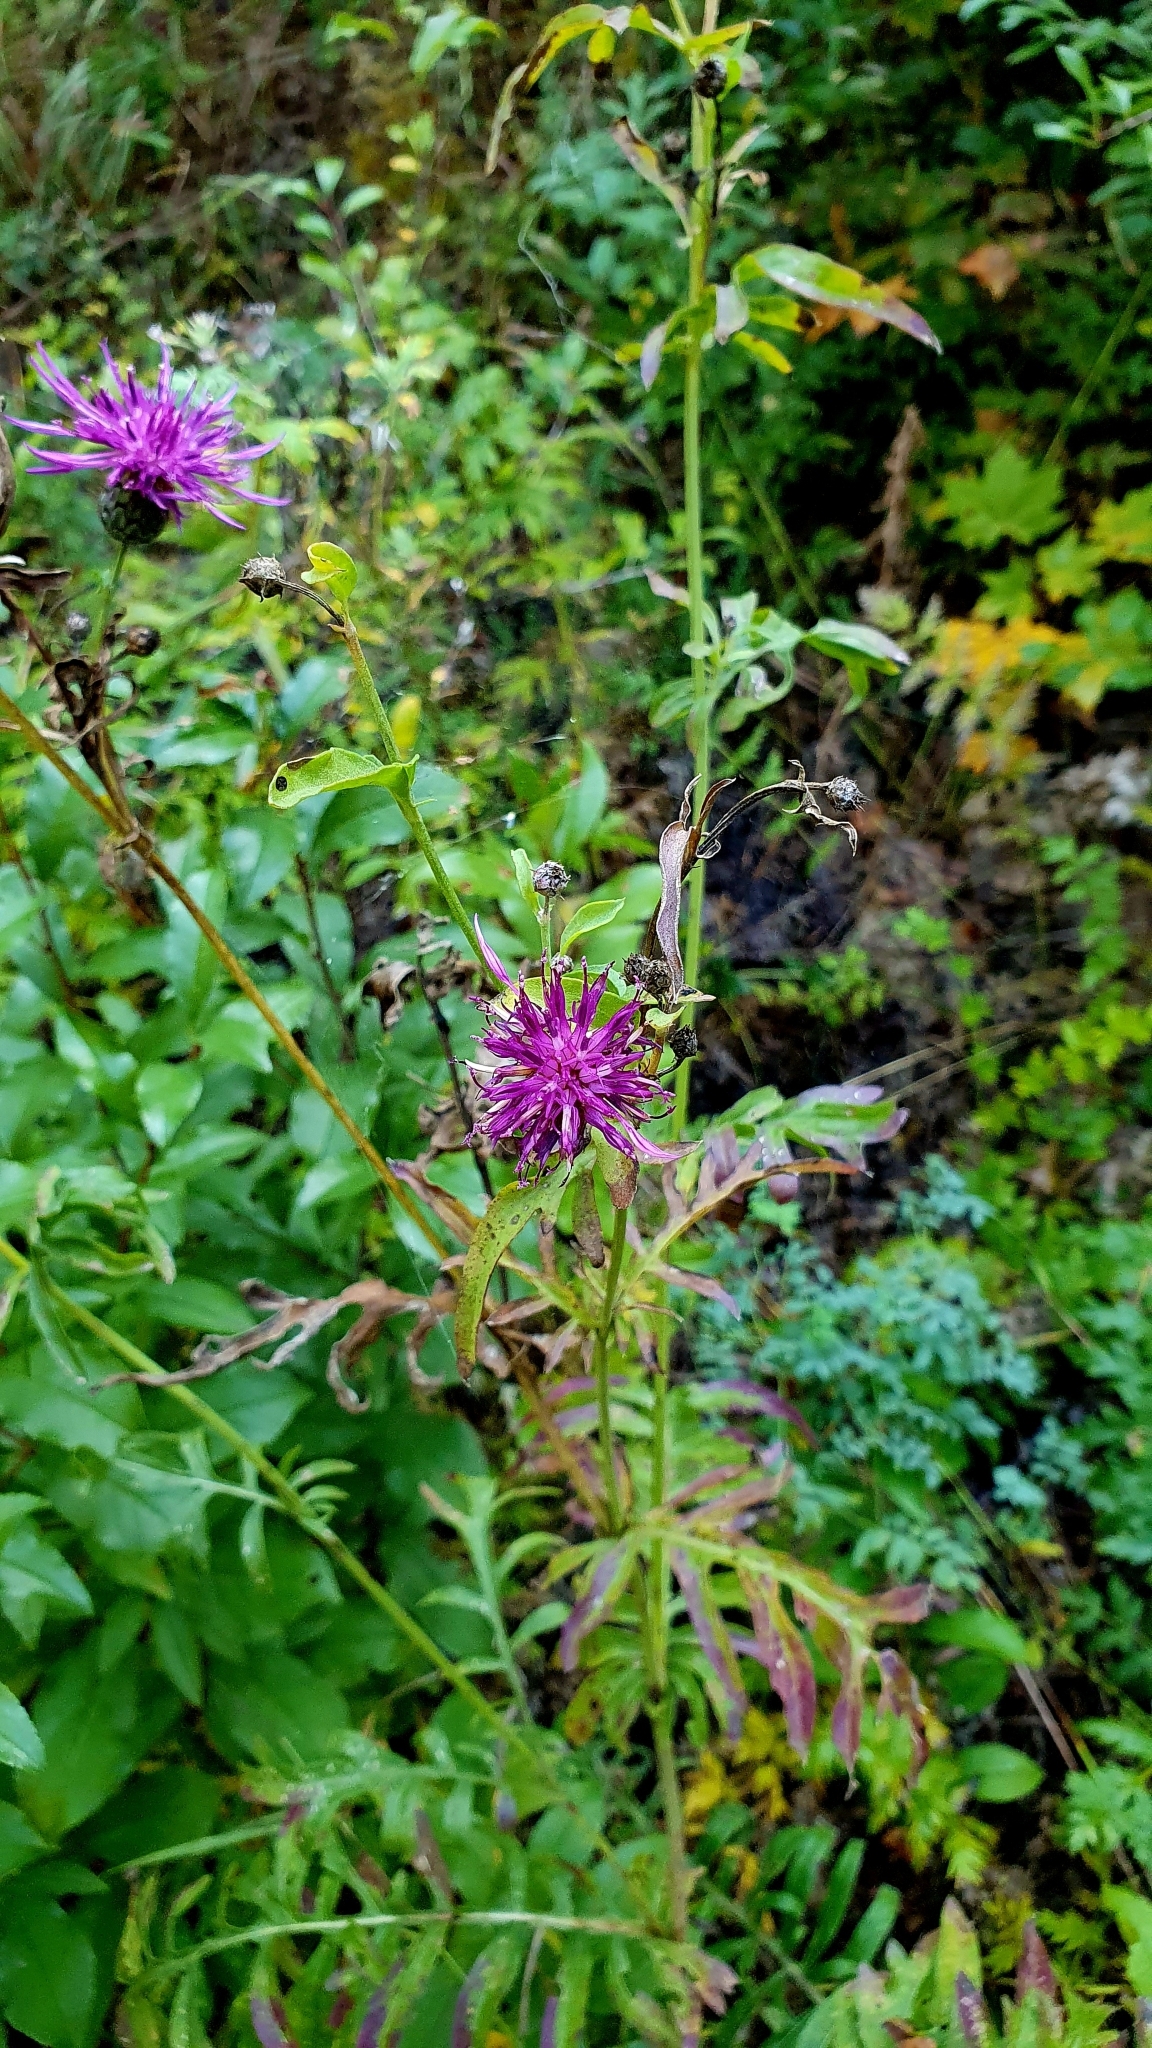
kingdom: Plantae
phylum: Tracheophyta
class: Magnoliopsida
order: Asterales
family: Asteraceae
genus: Centaurea
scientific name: Centaurea scabiosa
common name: Greater knapweed
